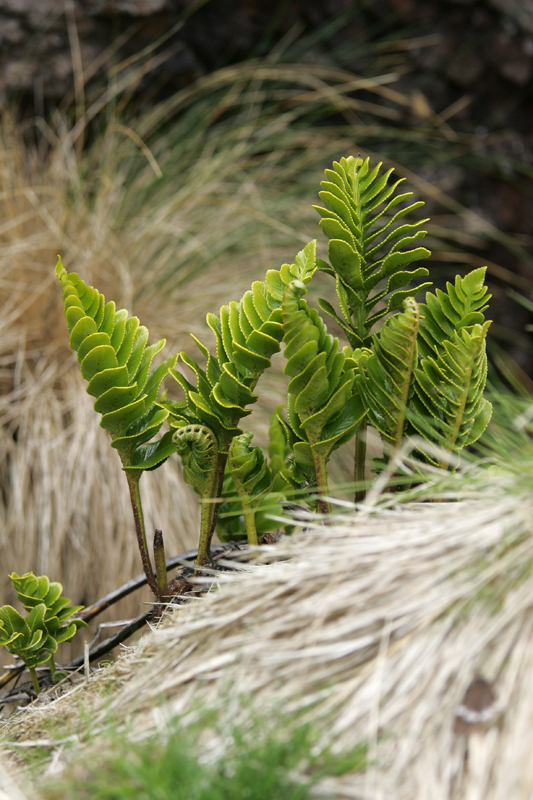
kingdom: Plantae
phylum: Tracheophyta
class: Polypodiopsida
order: Polypodiales
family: Aspleniaceae
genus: Asplenium
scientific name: Asplenium obtusatum
